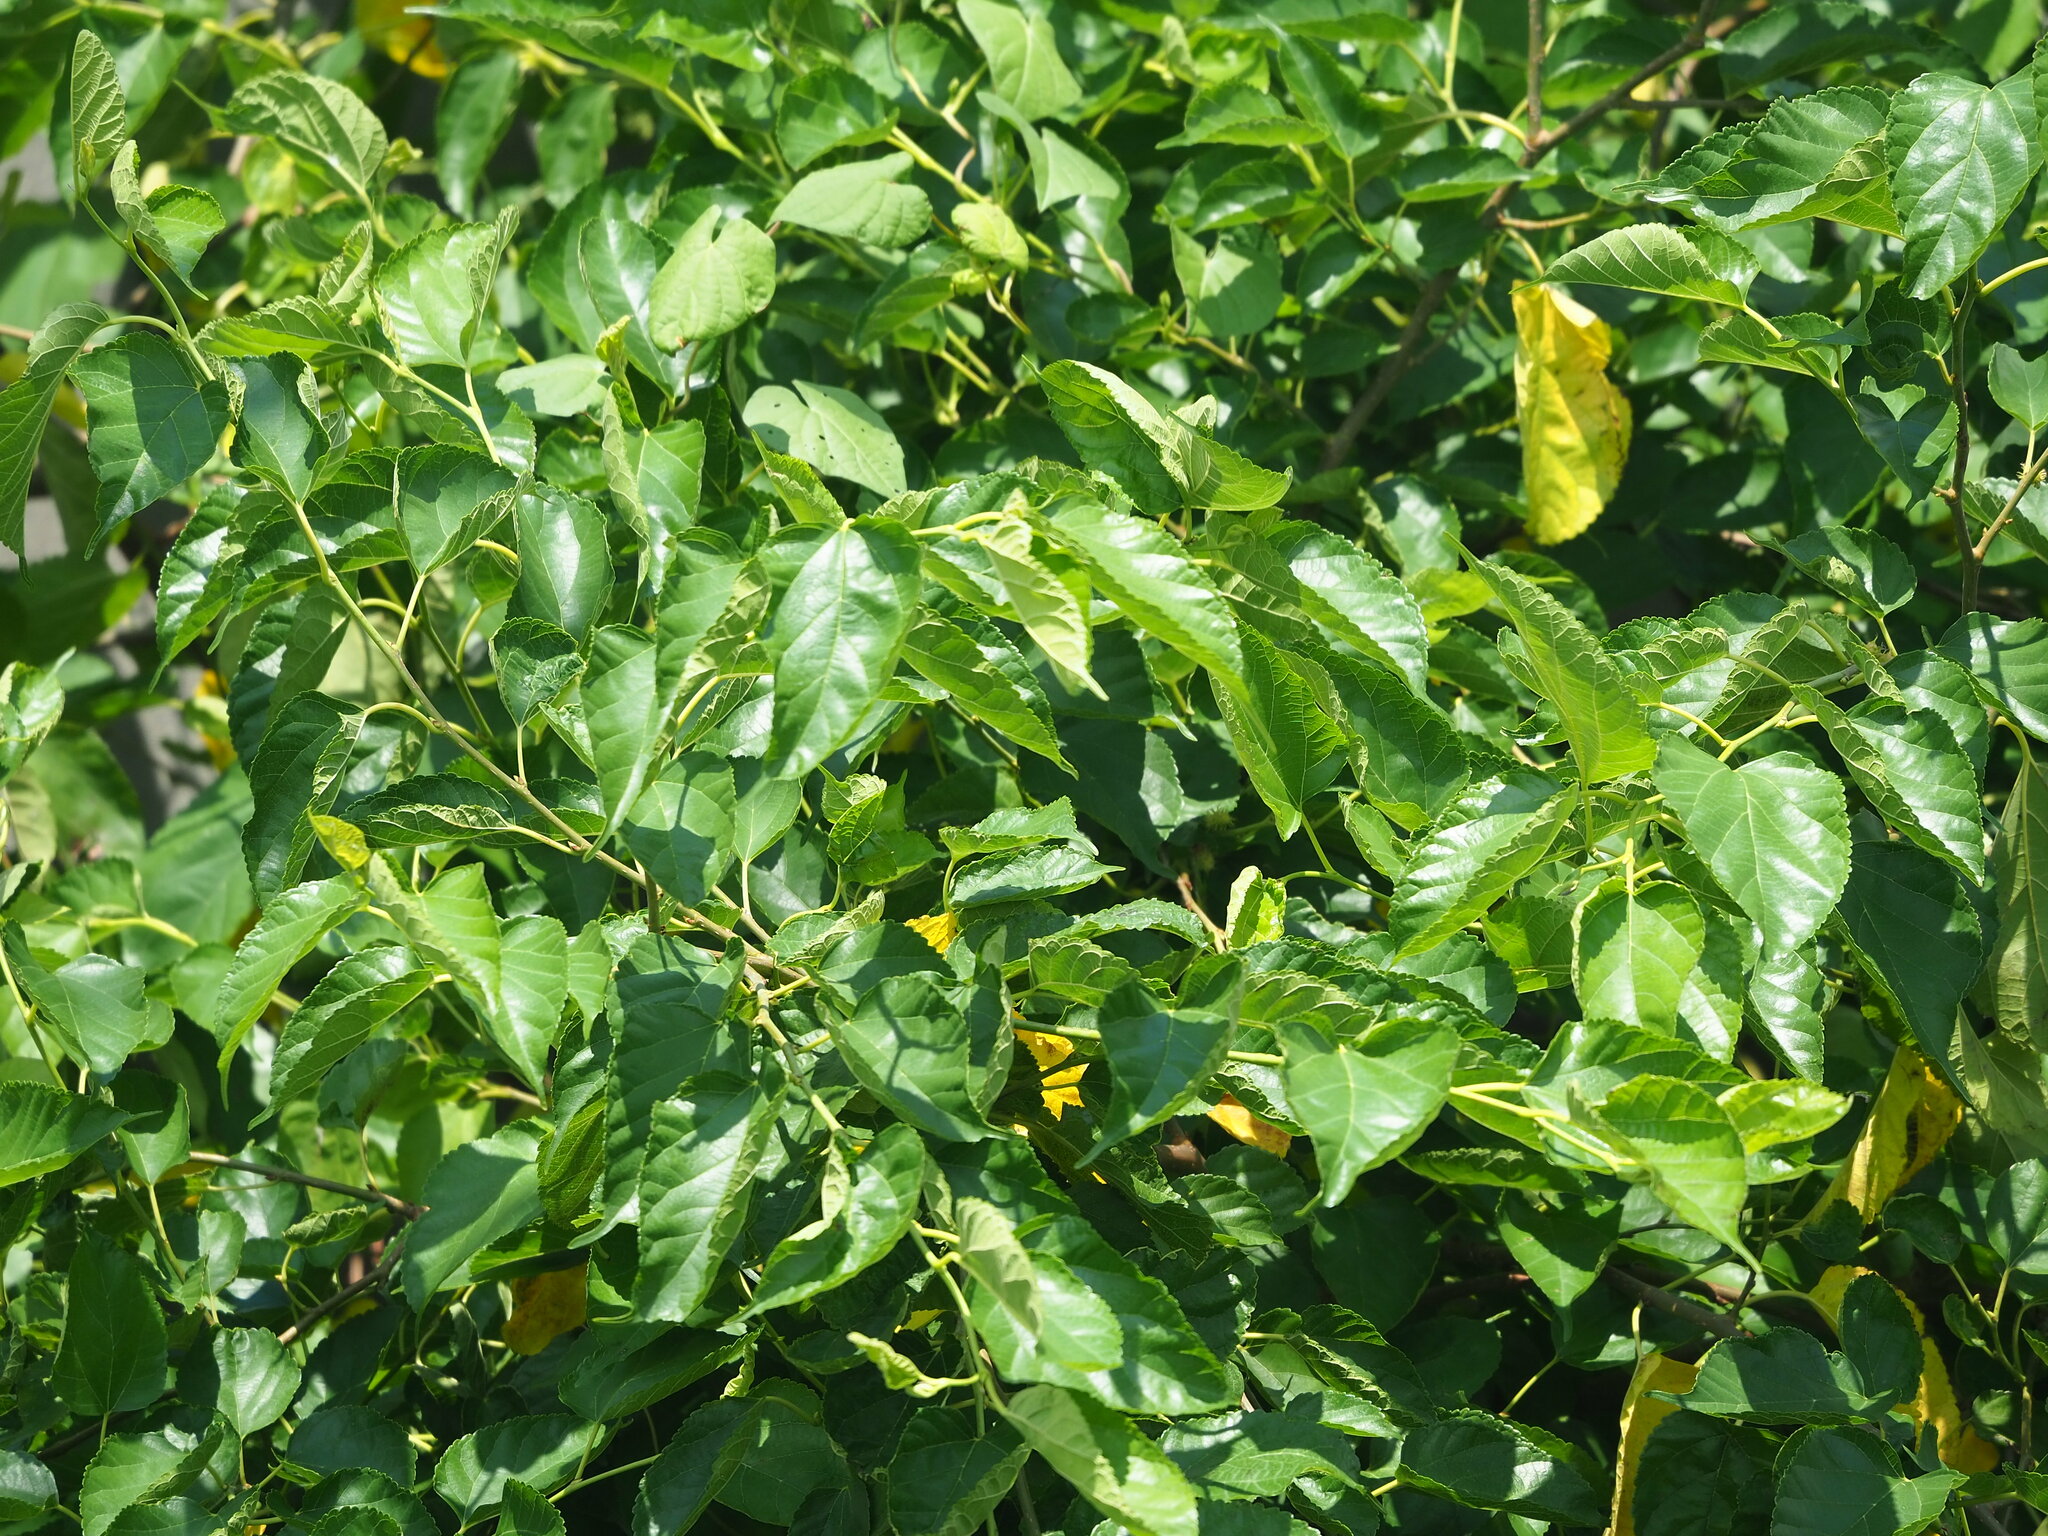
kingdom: Plantae
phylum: Tracheophyta
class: Magnoliopsida
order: Rosales
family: Moraceae
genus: Morus
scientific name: Morus indica
